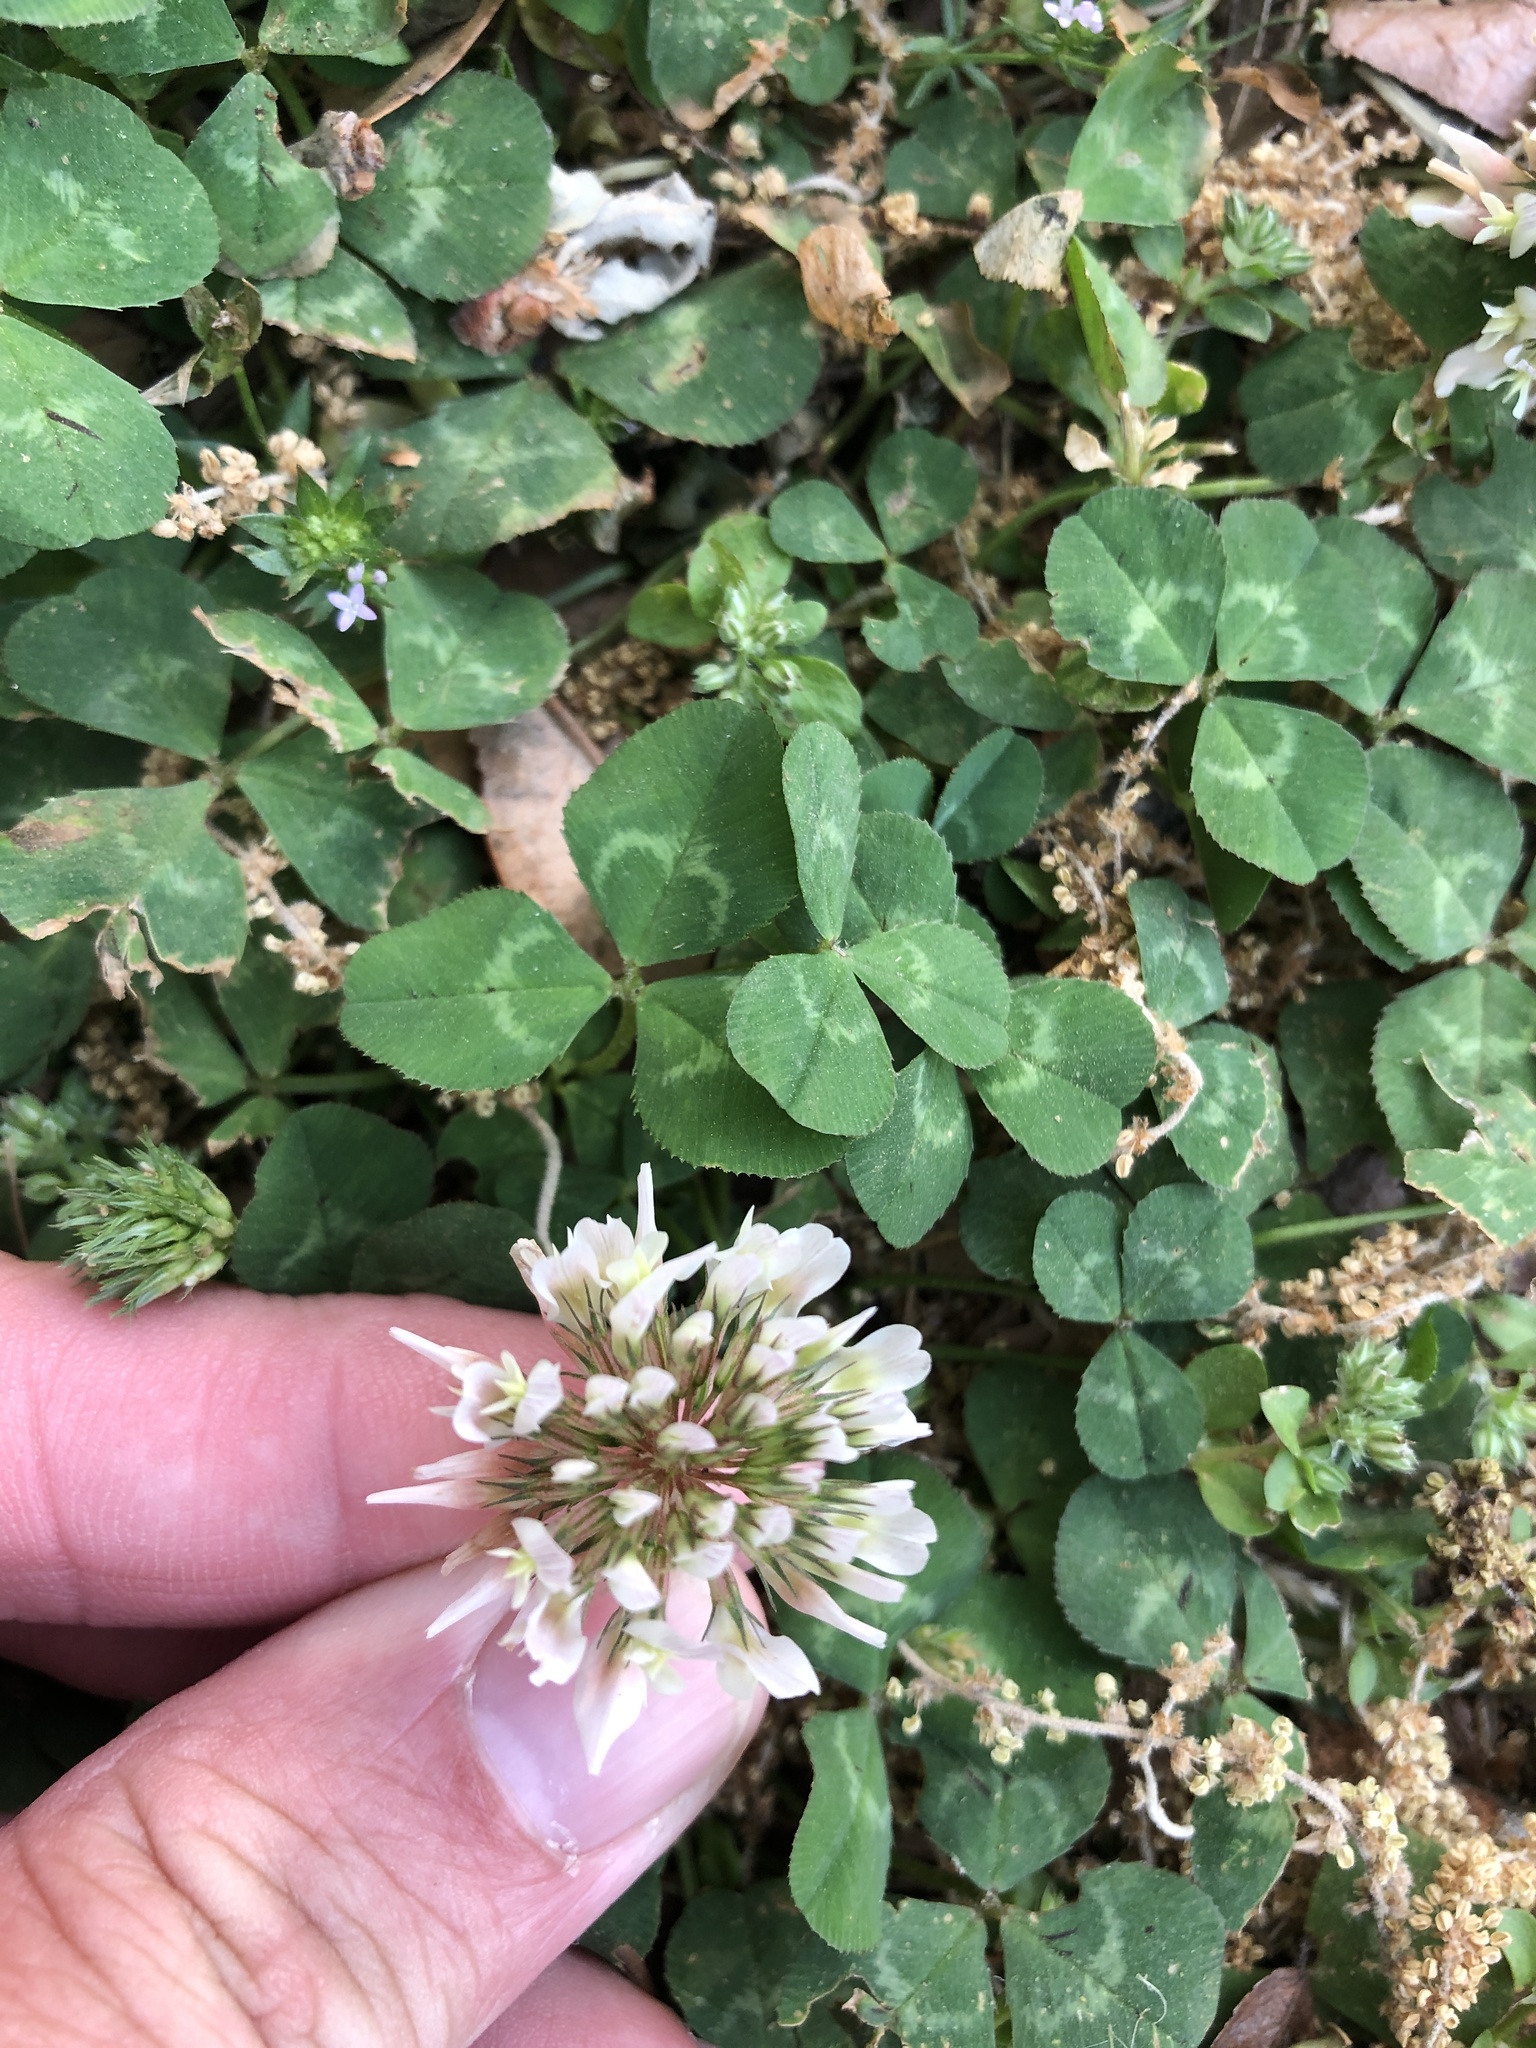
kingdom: Plantae
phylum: Tracheophyta
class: Magnoliopsida
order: Fabales
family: Fabaceae
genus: Trifolium
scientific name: Trifolium repens
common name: White clover
